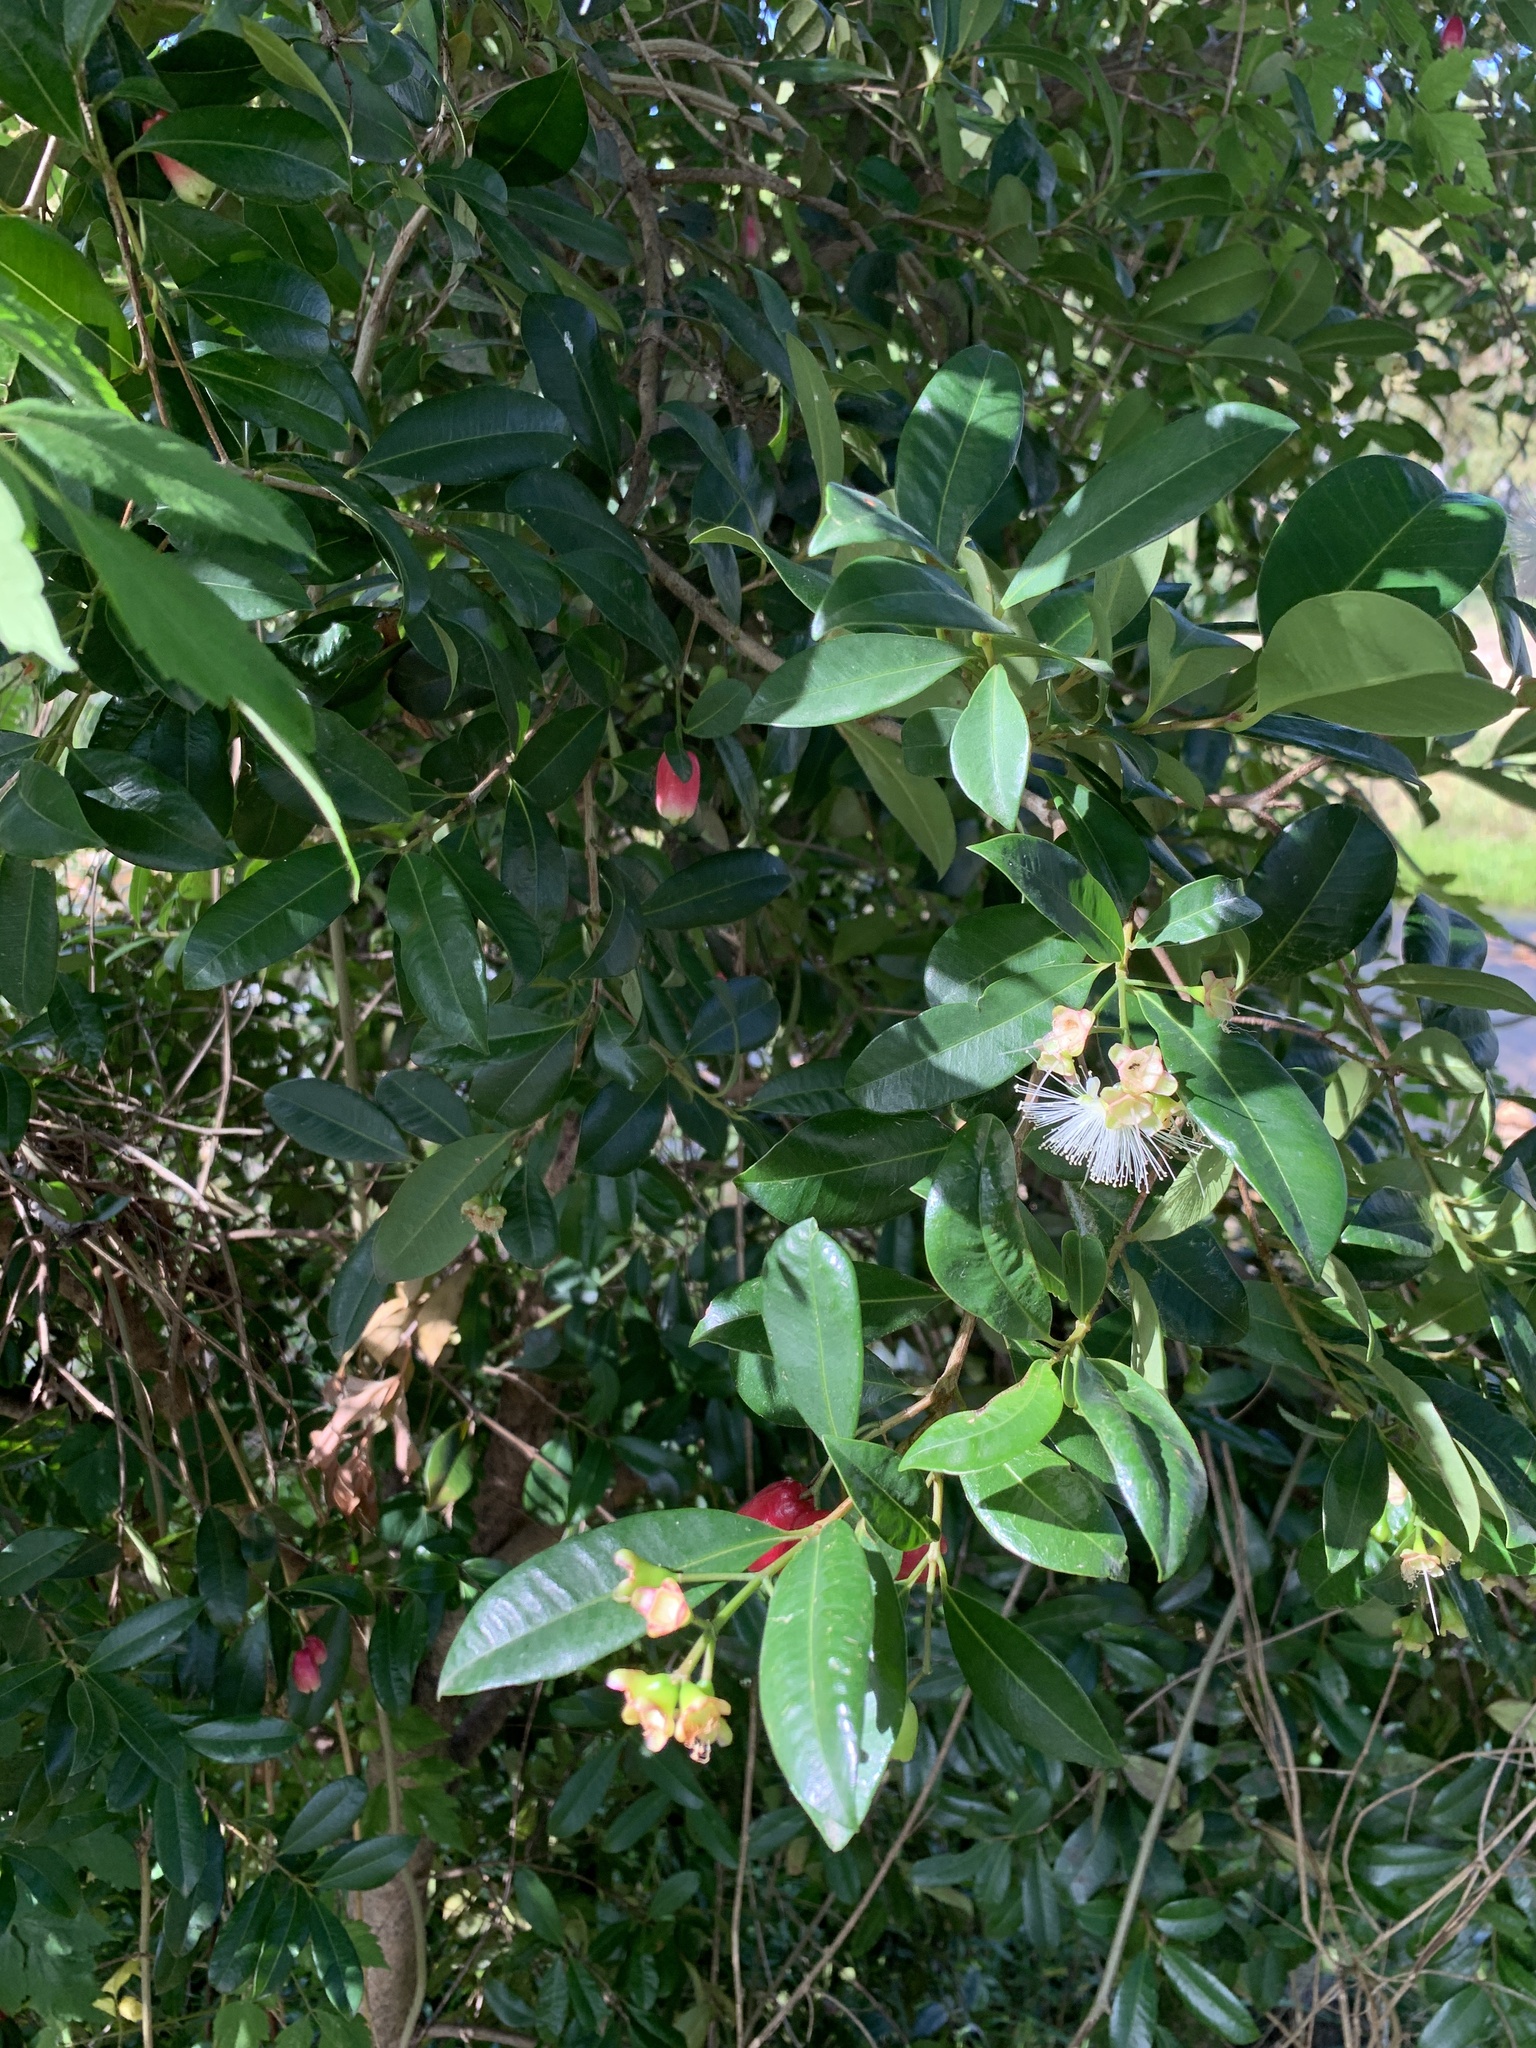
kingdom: Plantae
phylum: Tracheophyta
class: Magnoliopsida
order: Myrtales
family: Myrtaceae
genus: Syzygium
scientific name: Syzygium australe
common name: Australian brush-cherry
